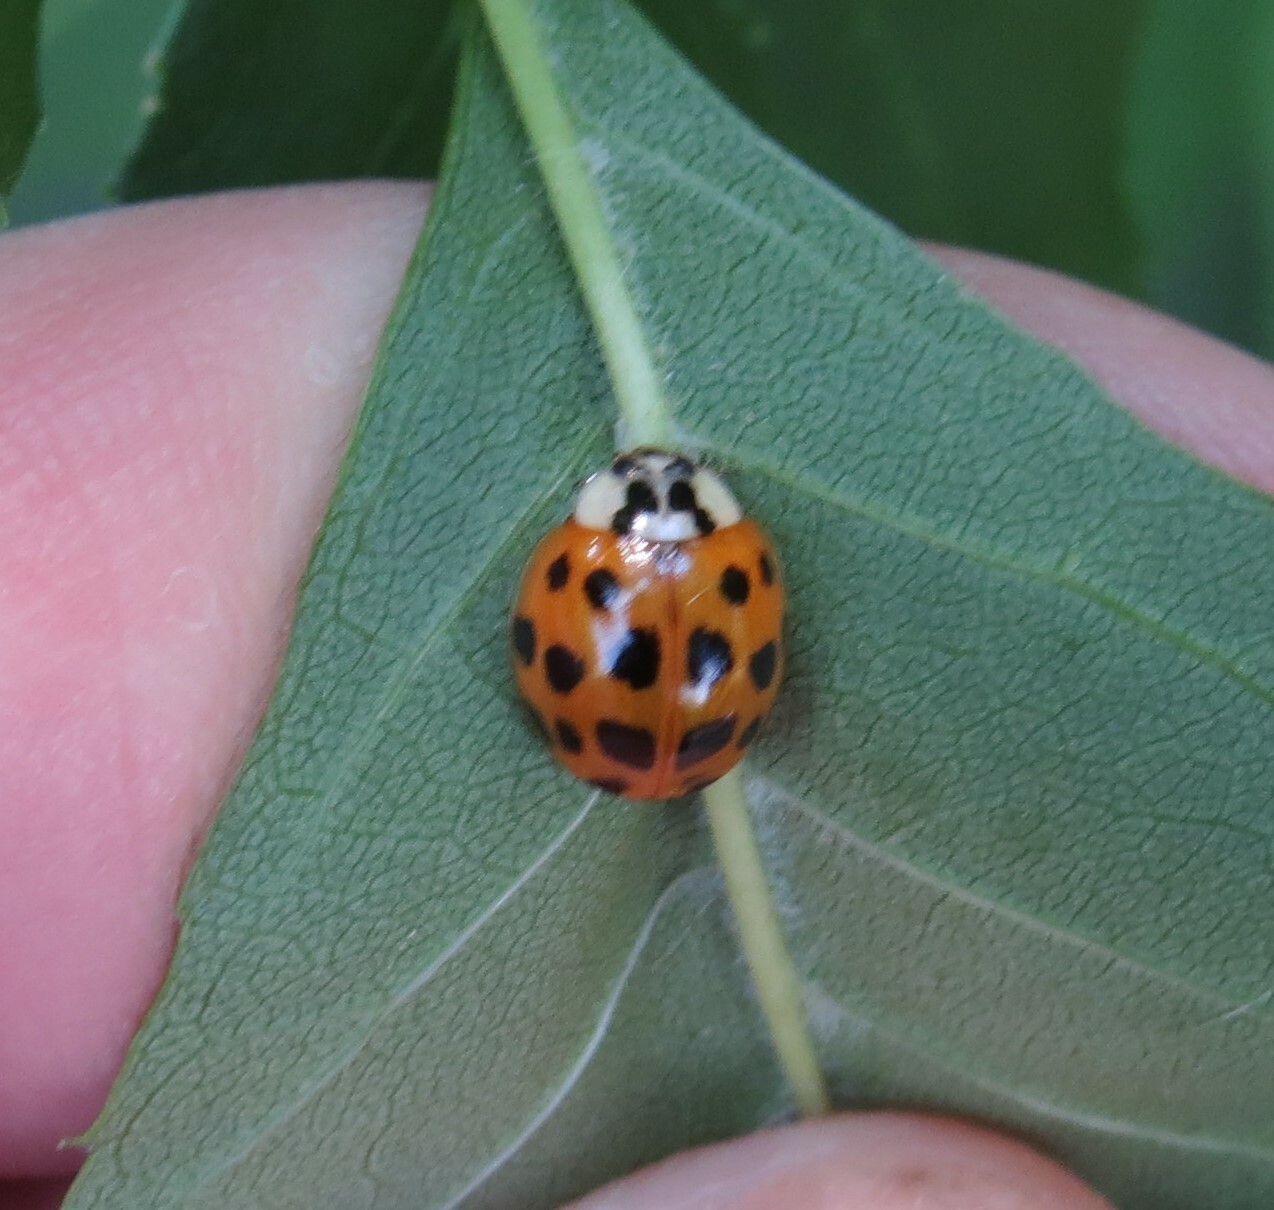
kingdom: Animalia
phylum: Arthropoda
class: Insecta
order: Coleoptera
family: Coccinellidae
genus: Harmonia
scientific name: Harmonia axyridis
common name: Harlequin ladybird
